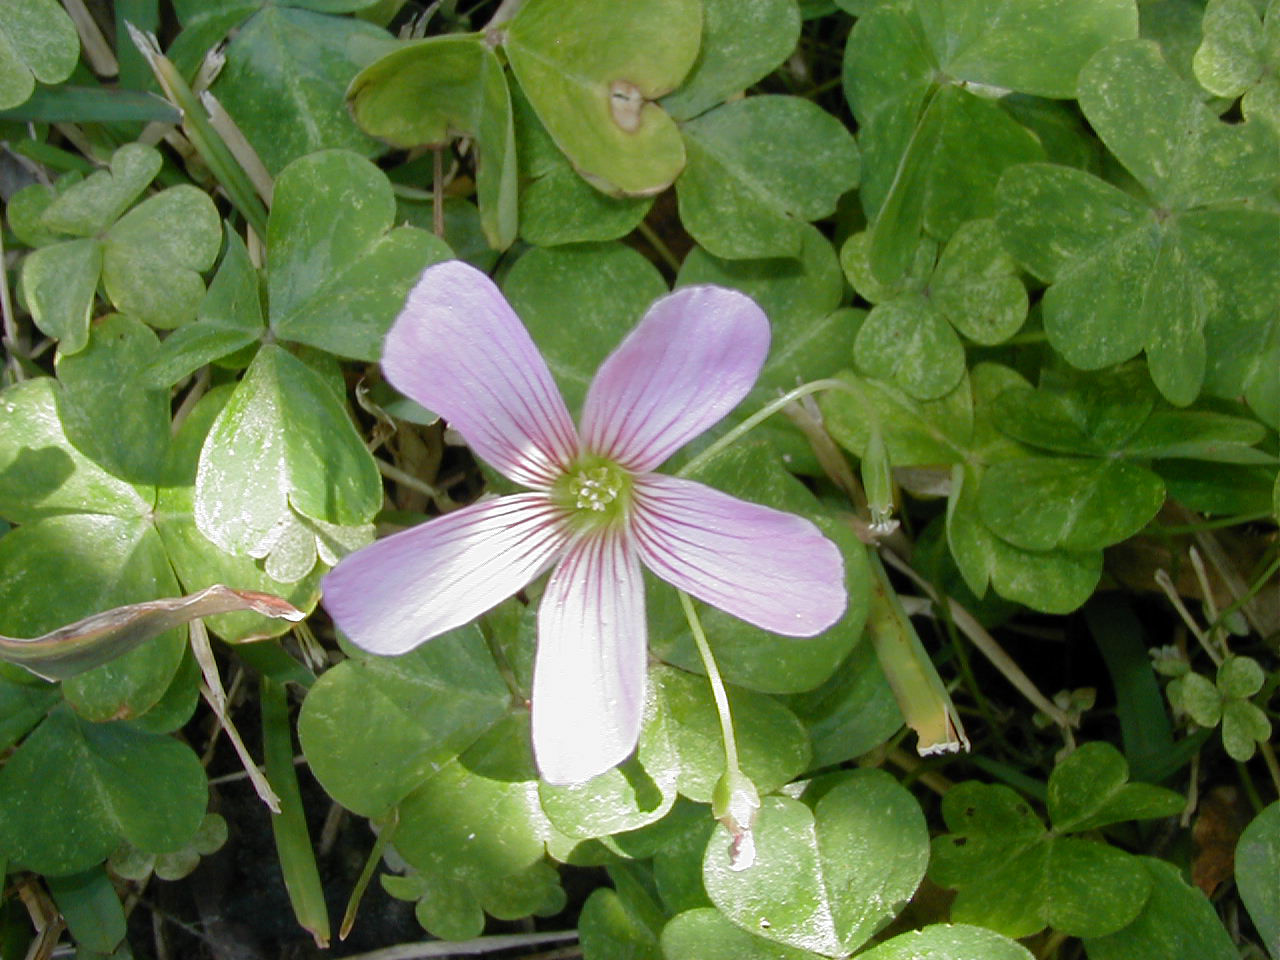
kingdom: Plantae
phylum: Tracheophyta
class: Magnoliopsida
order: Oxalidales
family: Oxalidaceae
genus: Oxalis
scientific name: Oxalis debilis
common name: Large-flowered pink-sorrel
